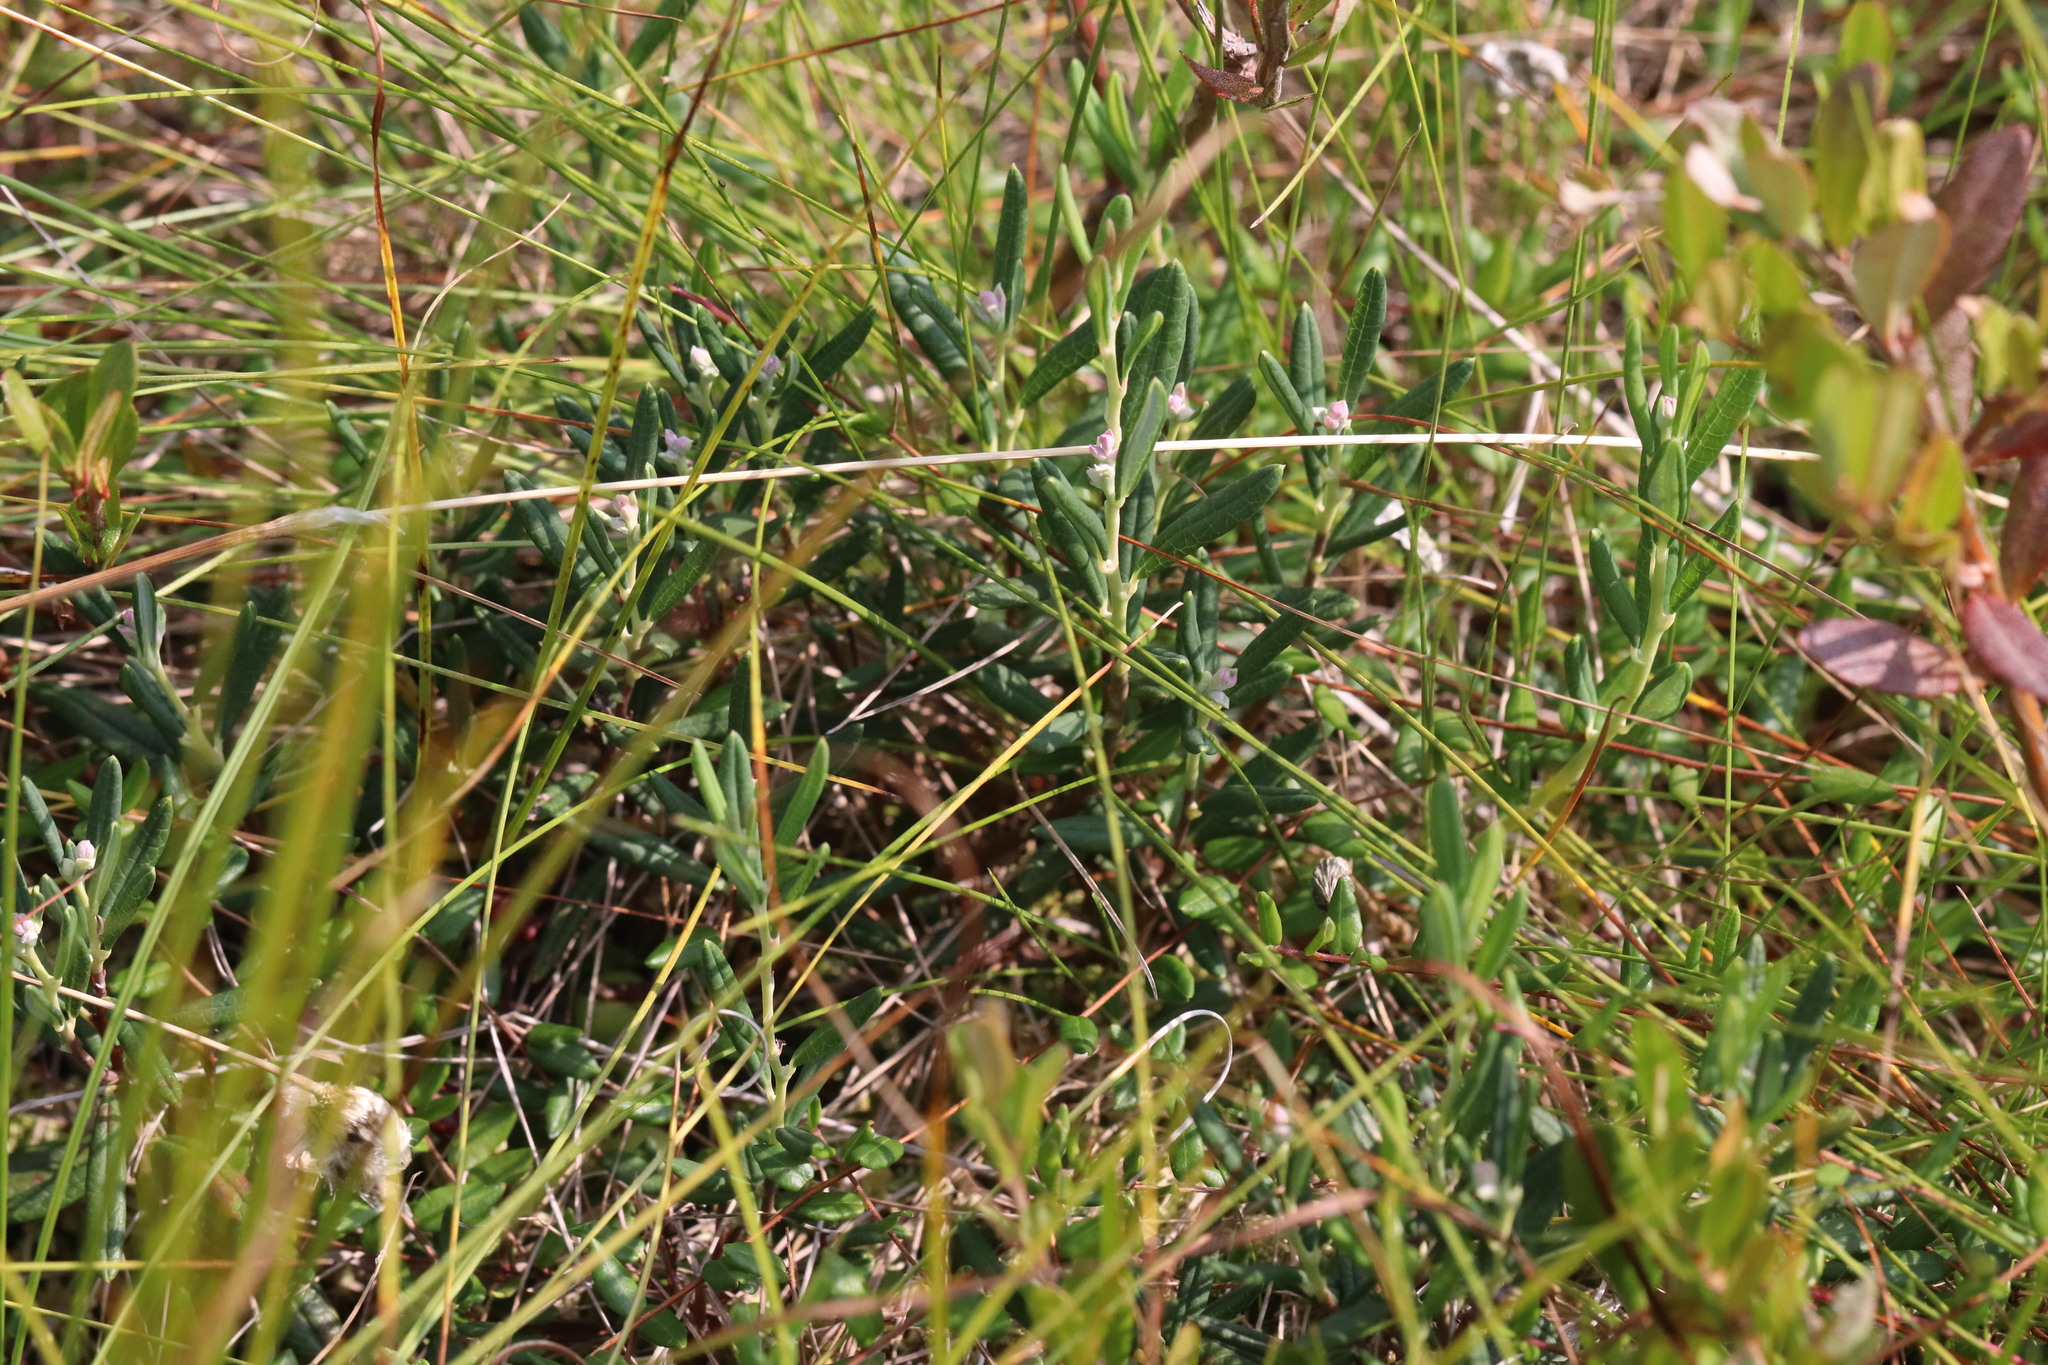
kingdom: Plantae
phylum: Tracheophyta
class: Magnoliopsida
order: Ericales
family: Ericaceae
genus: Andromeda
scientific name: Andromeda polifolia
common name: Bog-rosemary
